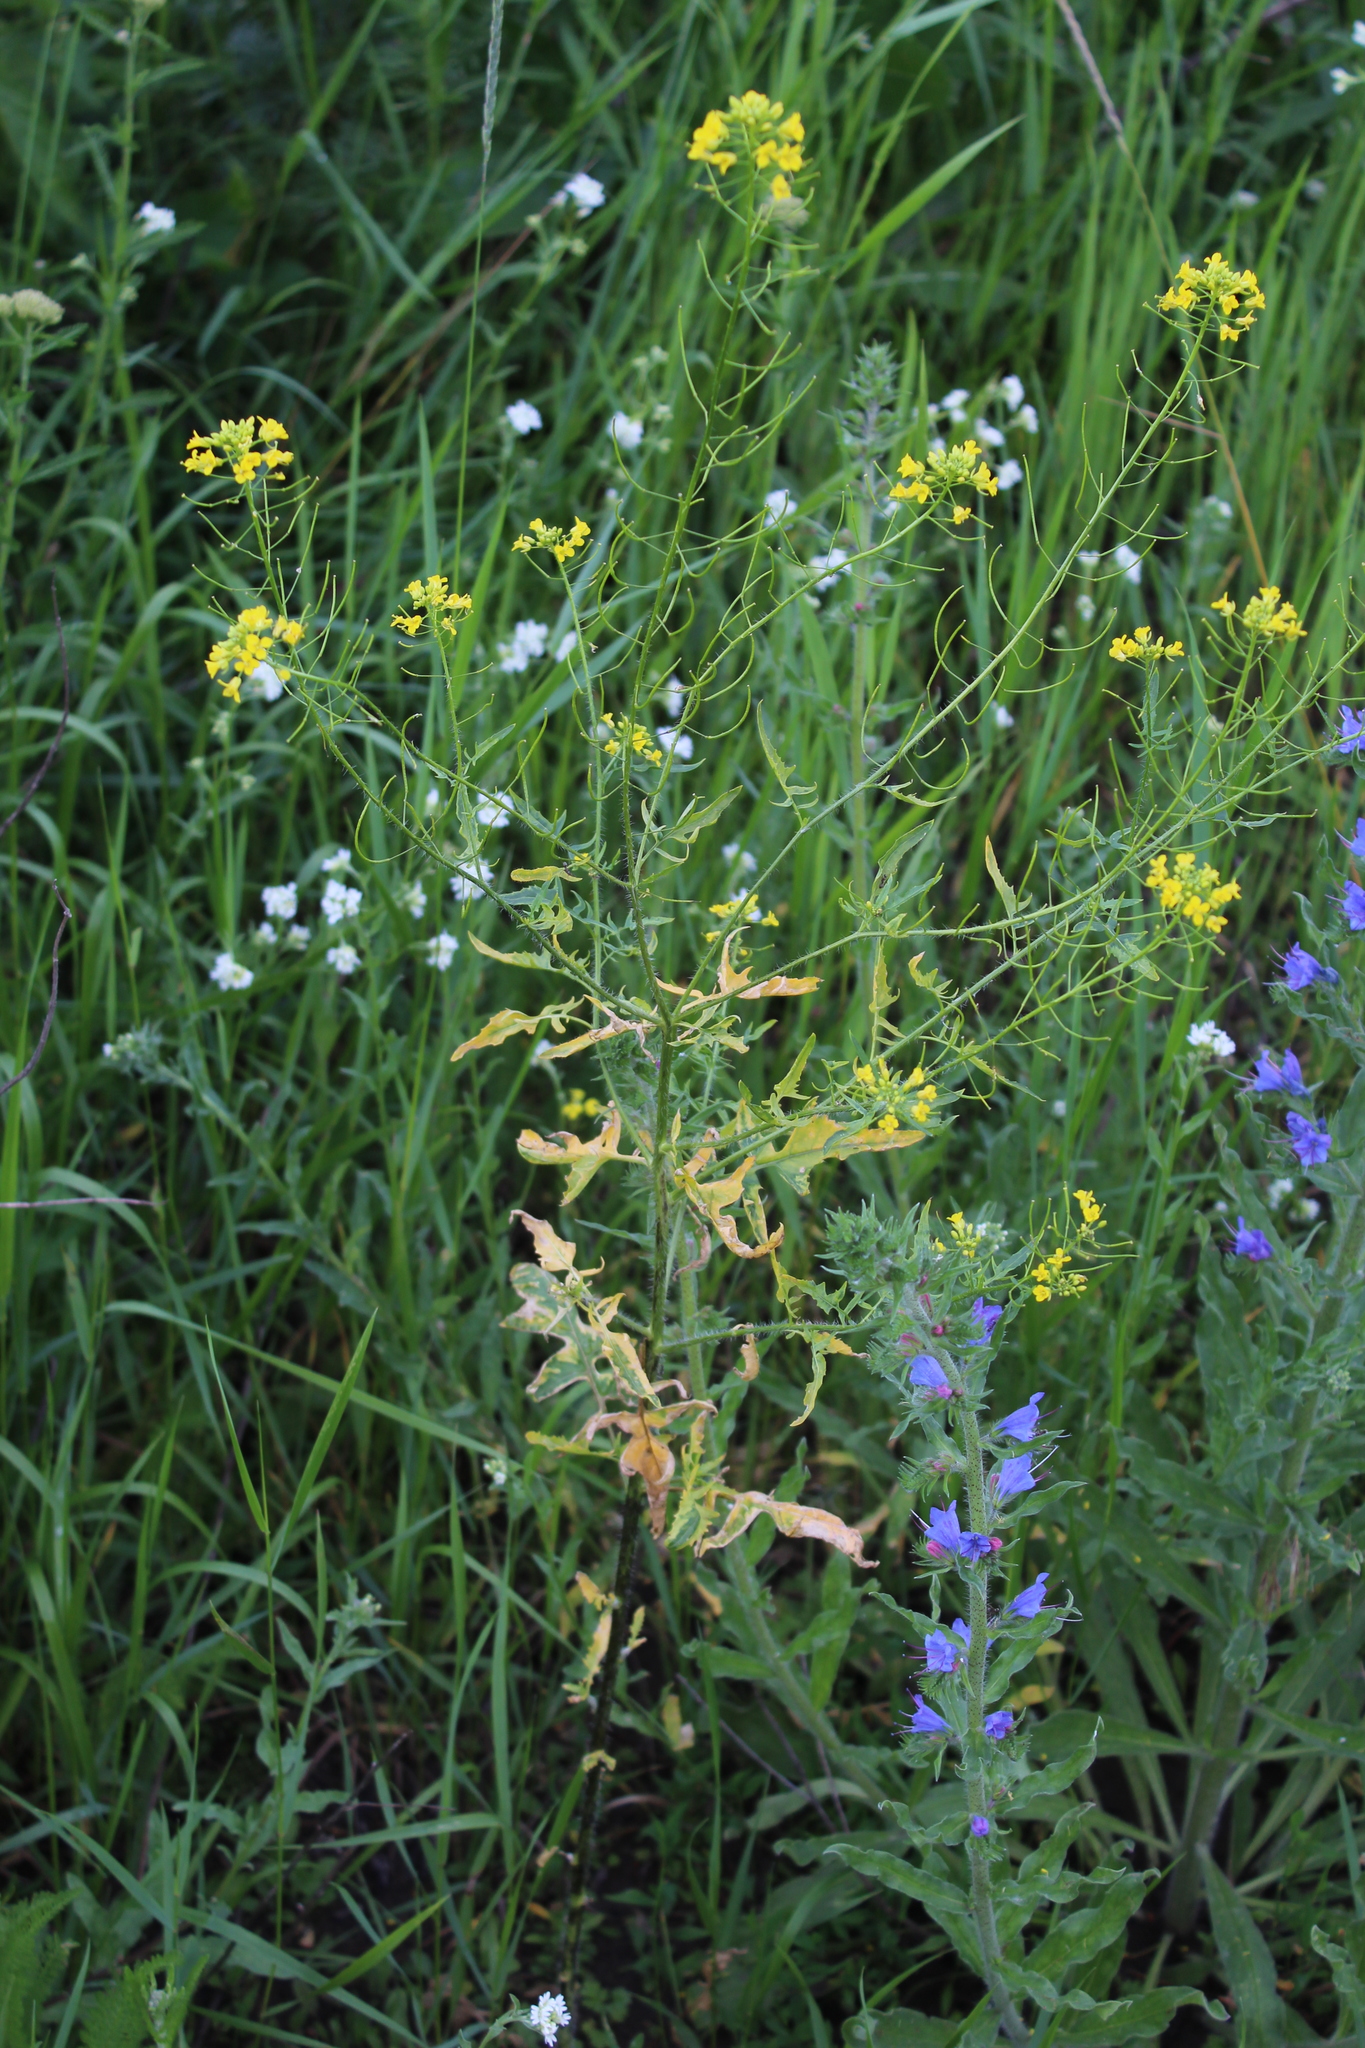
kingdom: Plantae
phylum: Tracheophyta
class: Magnoliopsida
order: Brassicales
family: Brassicaceae
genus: Sisymbrium
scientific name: Sisymbrium loeselii
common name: False london-rocket
